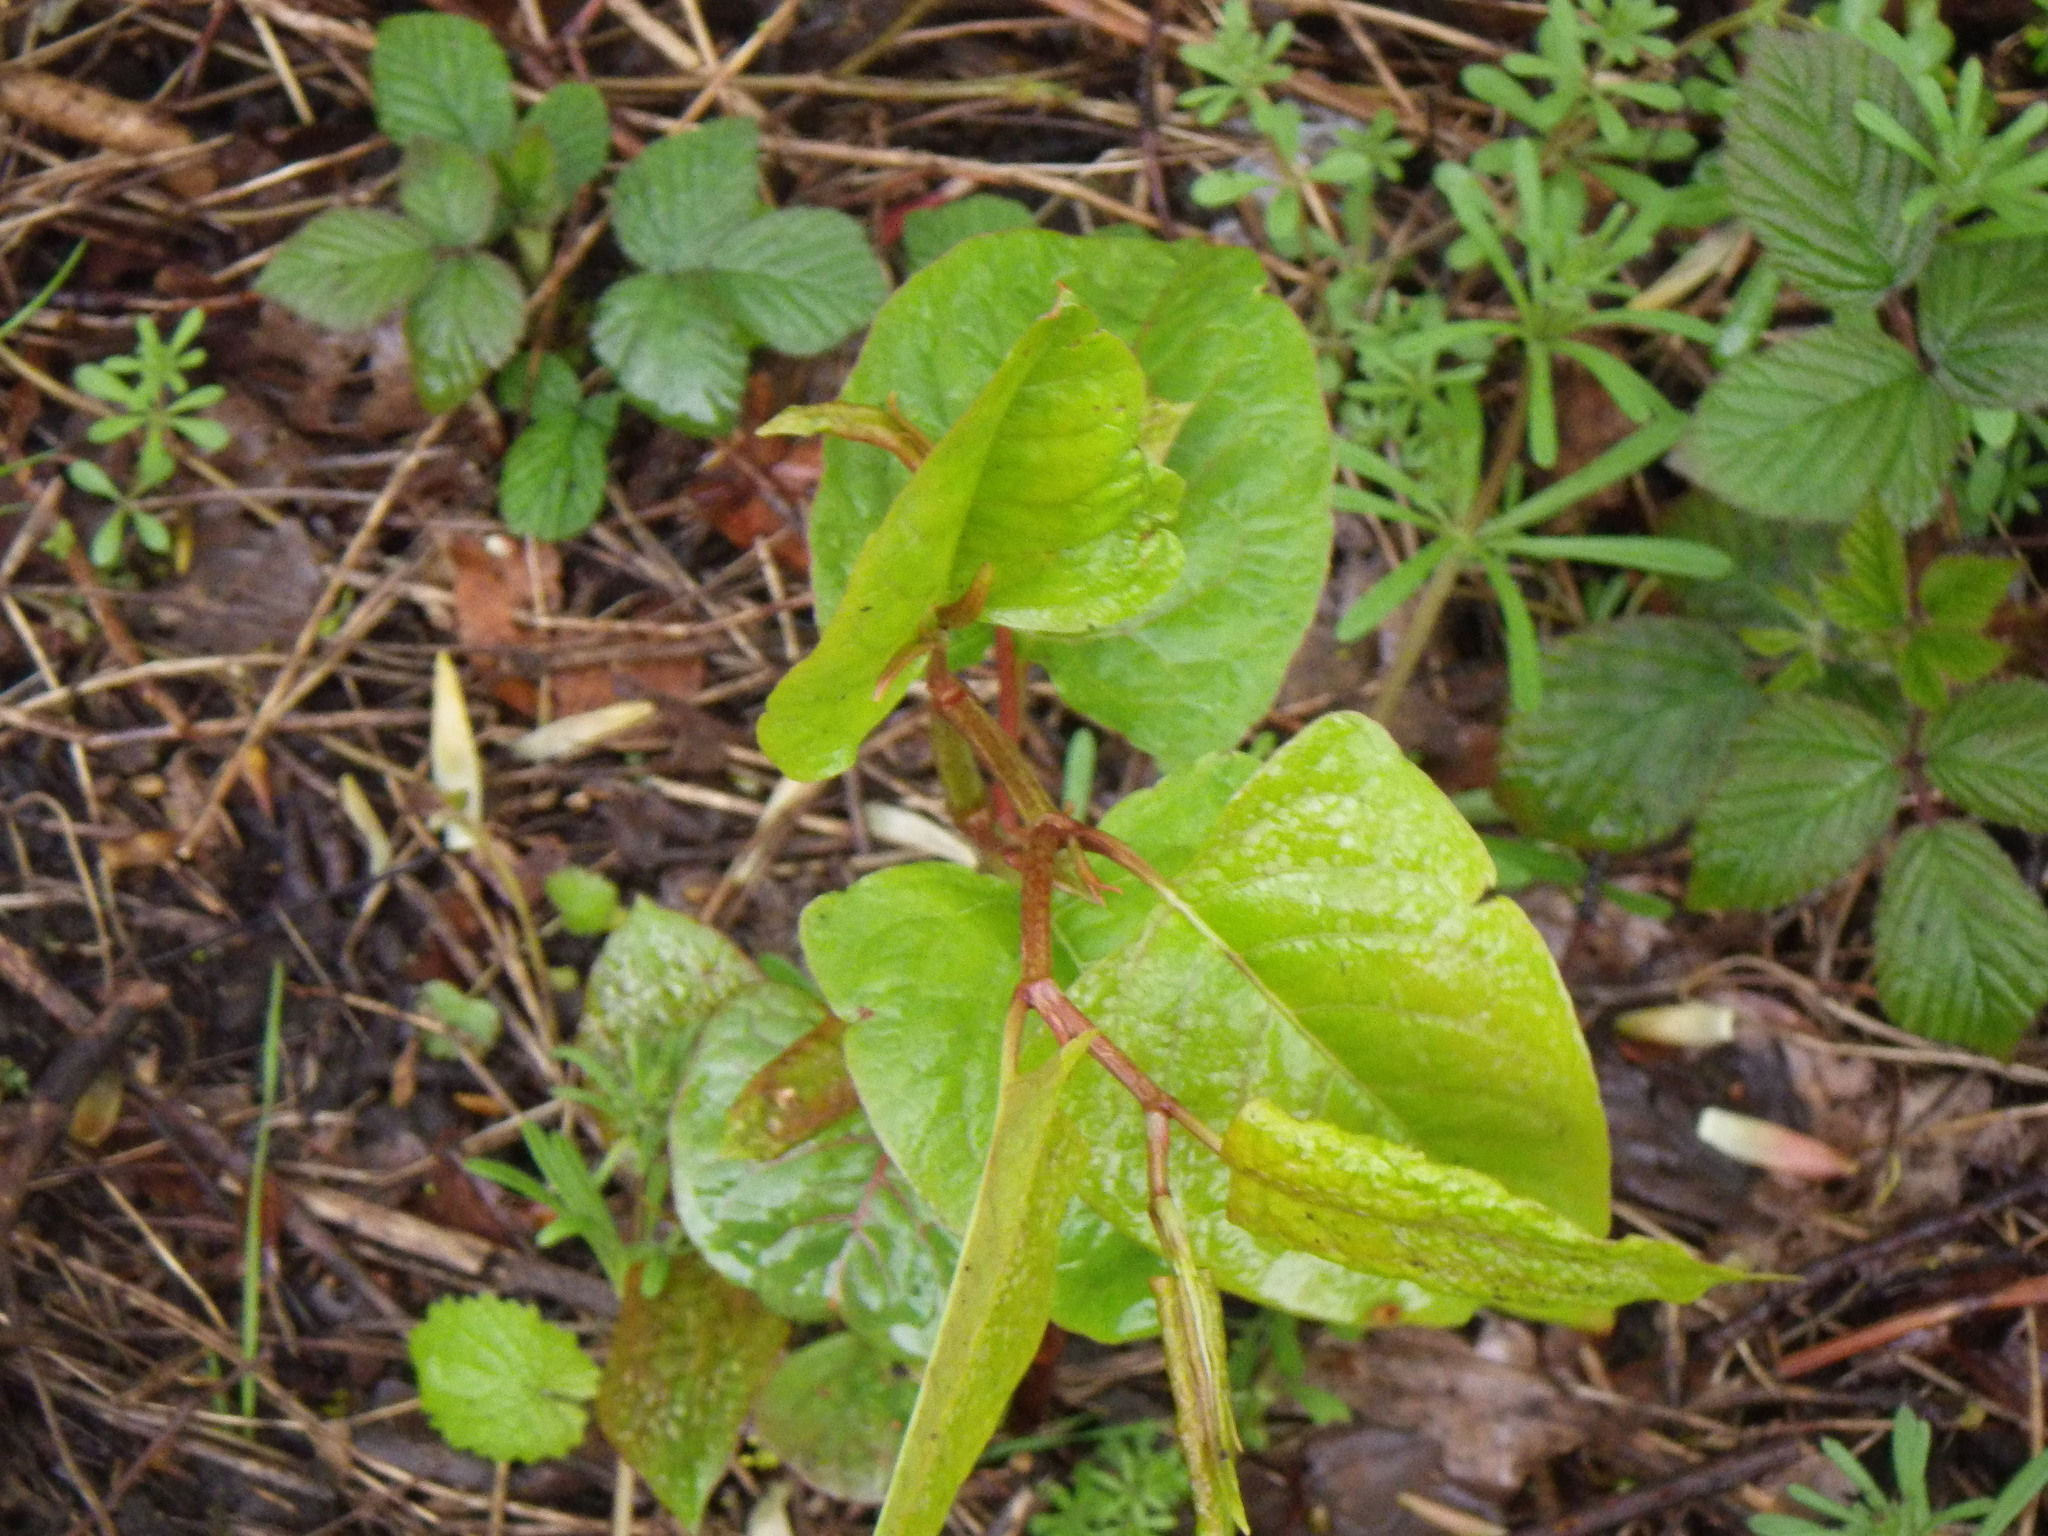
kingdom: Plantae
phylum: Tracheophyta
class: Magnoliopsida
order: Caryophyllales
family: Polygonaceae
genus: Reynoutria
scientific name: Reynoutria japonica
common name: Japanese knotweed
